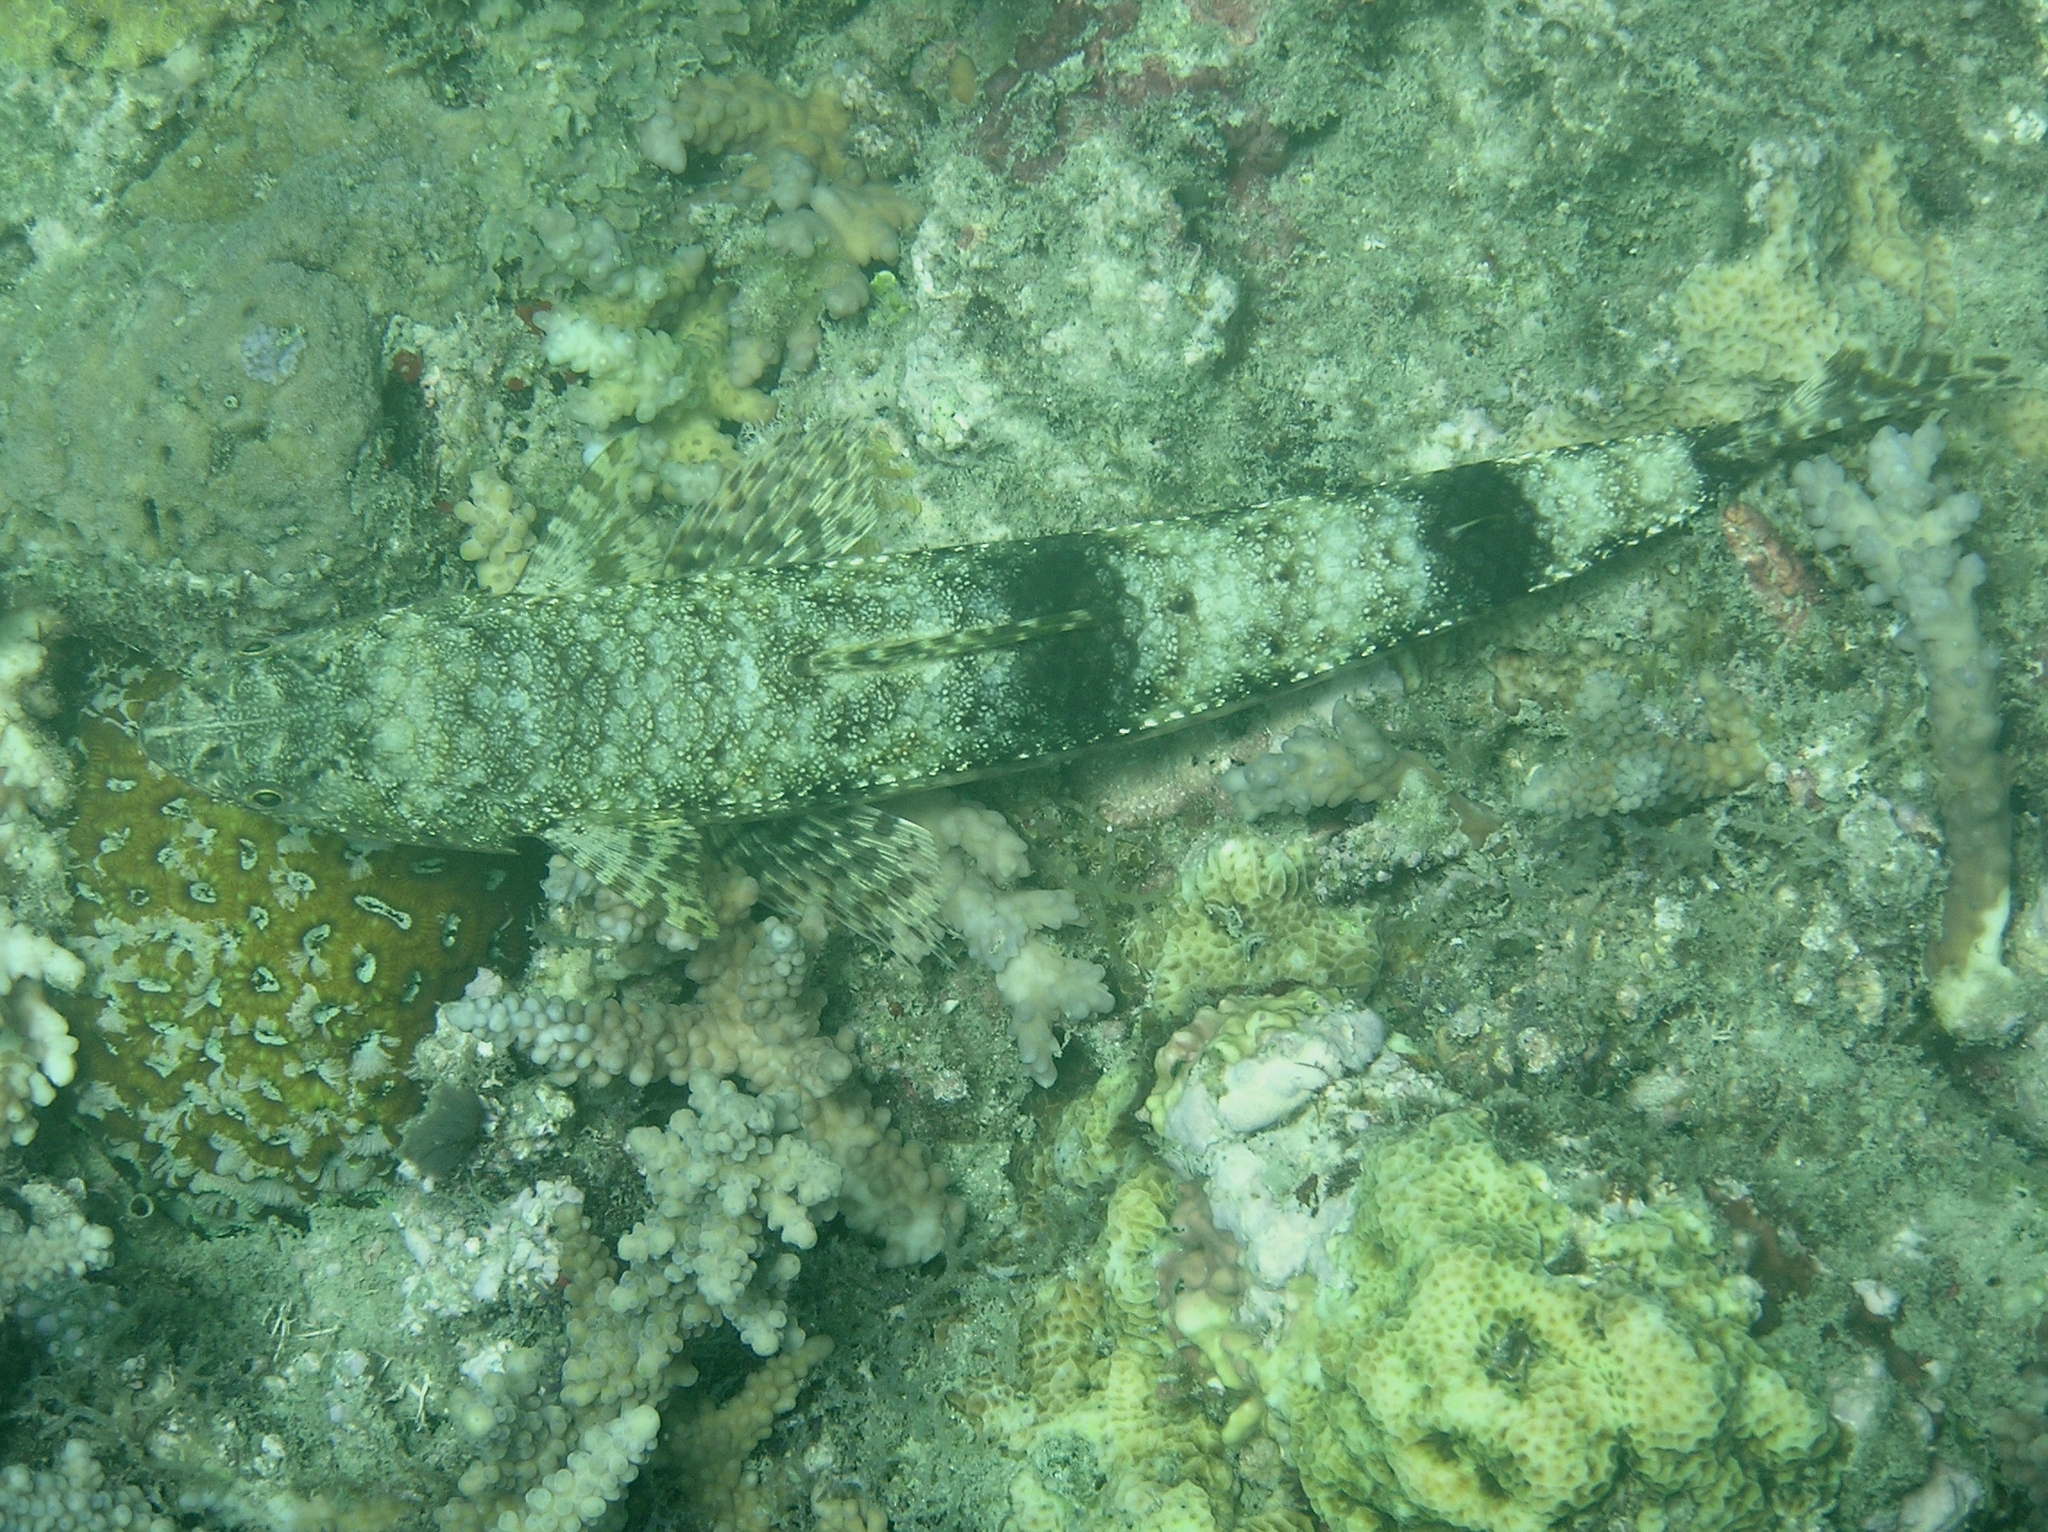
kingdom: Animalia
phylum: Chordata
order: Aulopiformes
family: Synodontidae
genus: Saurida
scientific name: Saurida nebulosa
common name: Nebulous lizardfish
